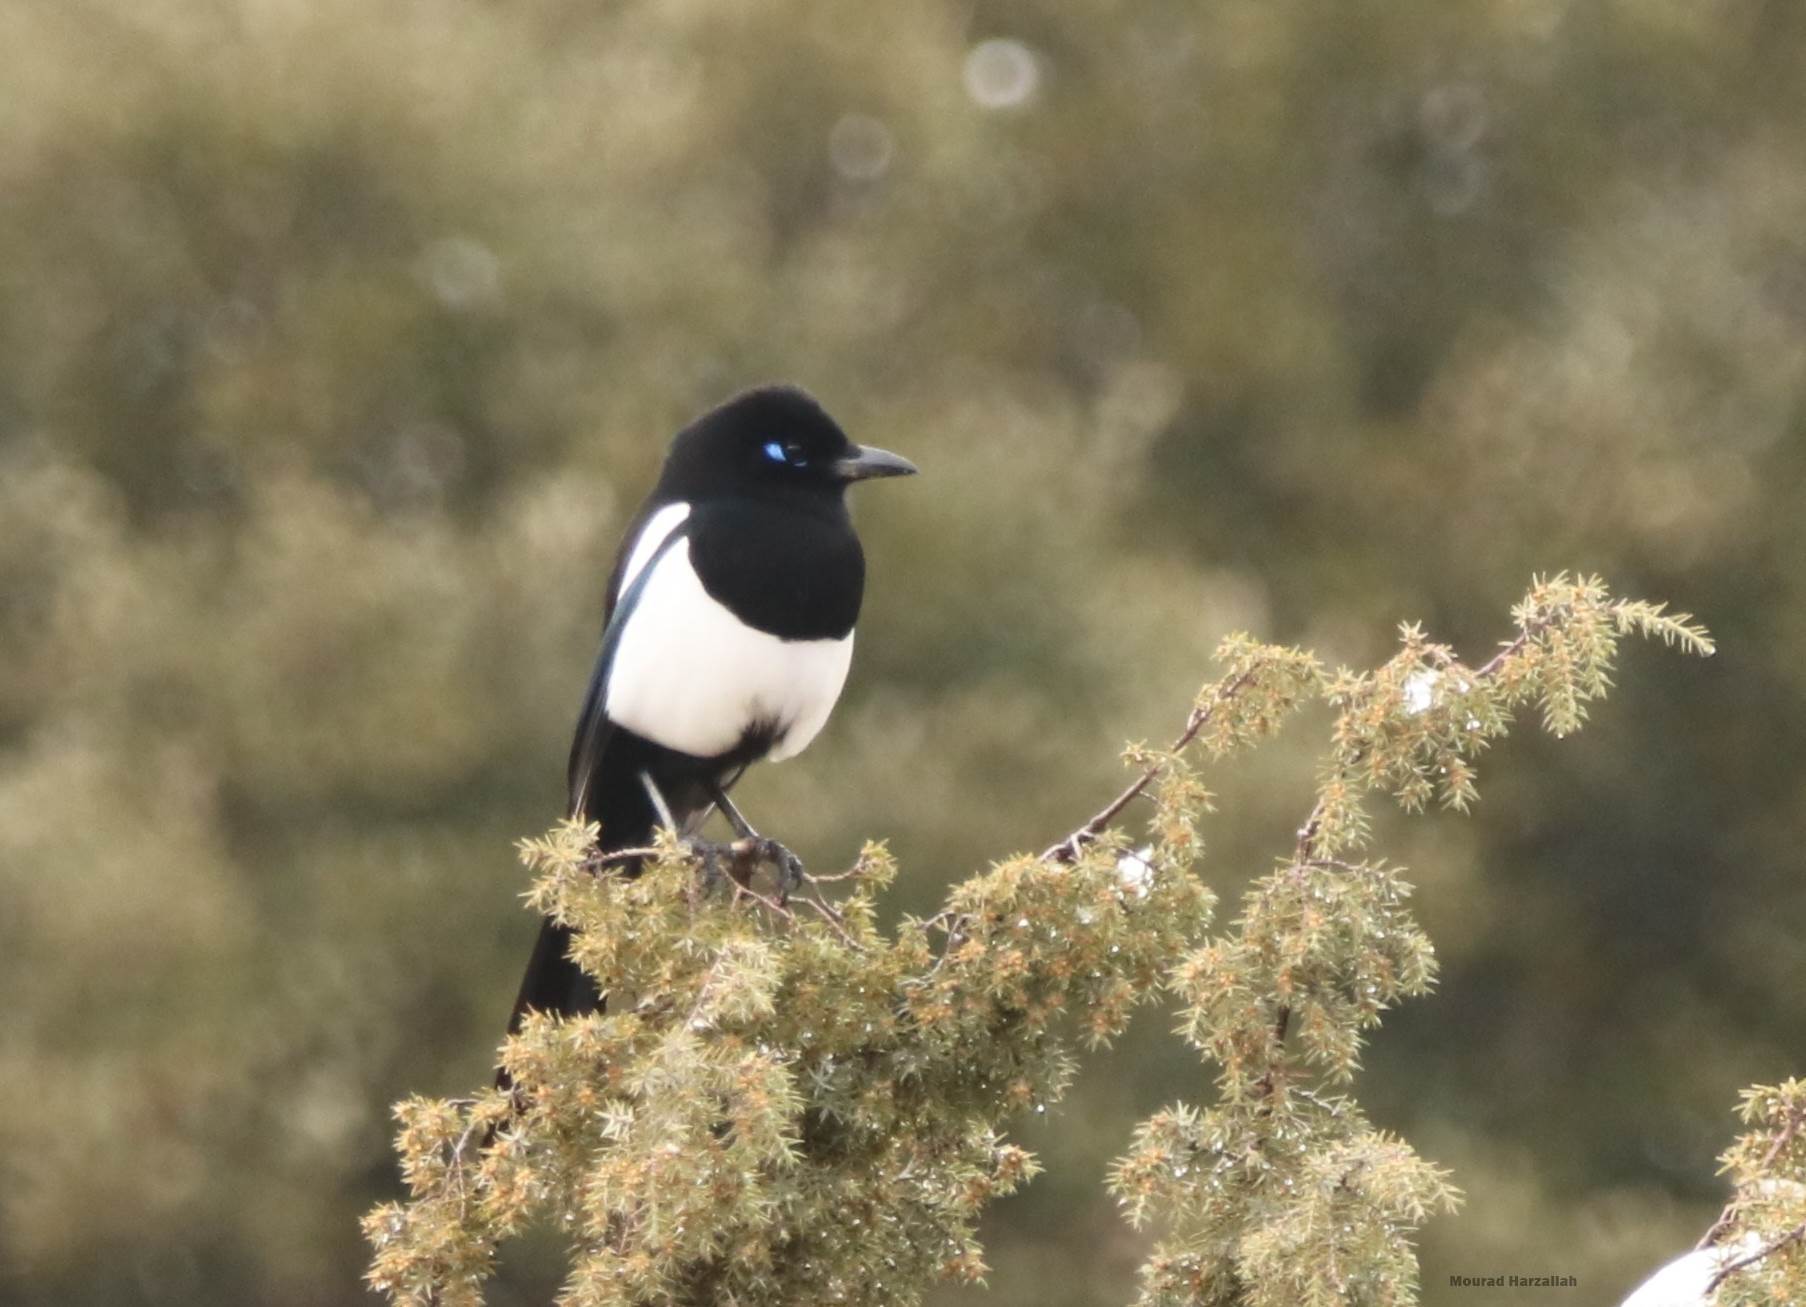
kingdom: Animalia
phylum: Chordata
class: Aves
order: Passeriformes
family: Corvidae
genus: Pica
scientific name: Pica mauritanica
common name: Maghreb magpie
